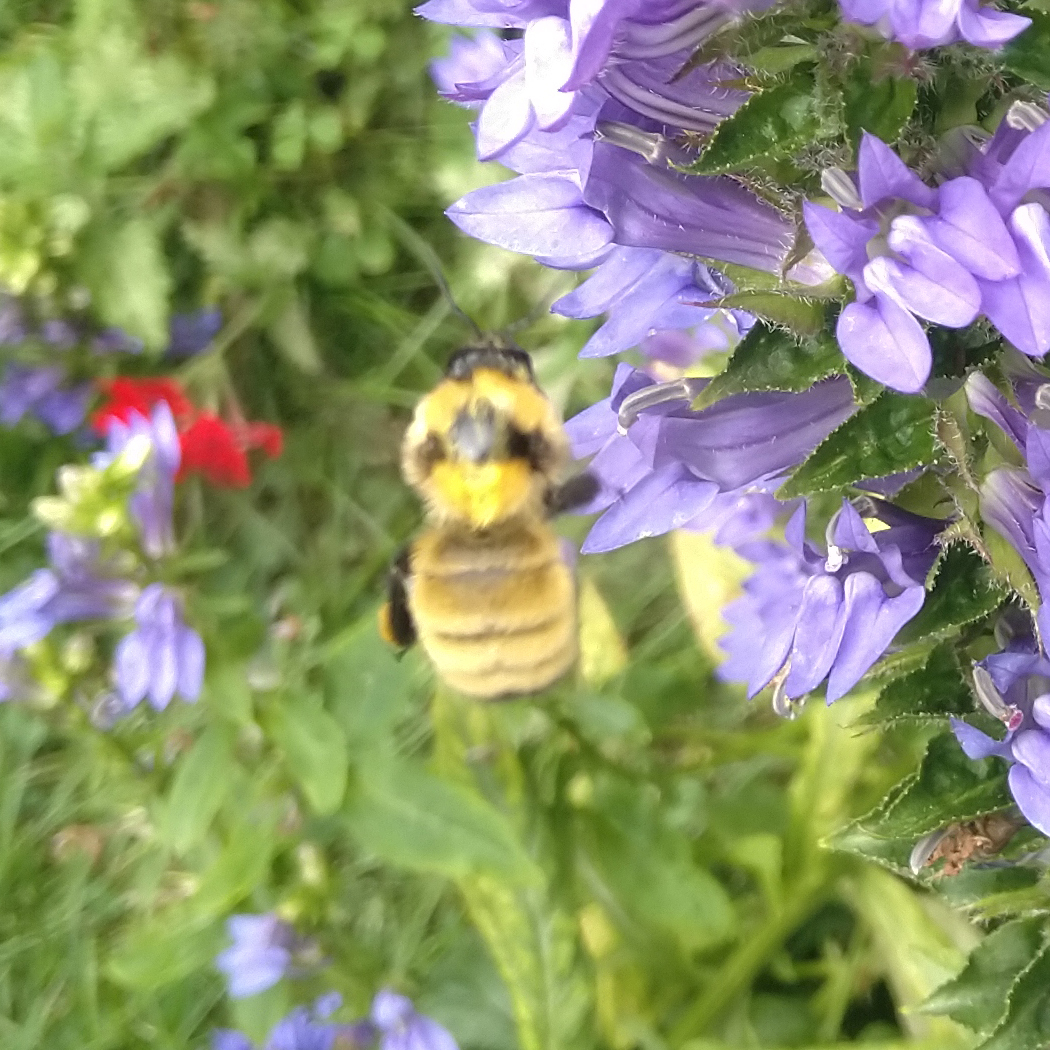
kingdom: Animalia
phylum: Arthropoda
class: Insecta
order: Hymenoptera
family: Apidae
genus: Bombus
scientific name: Bombus fervidus
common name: Yellow bumble bee
